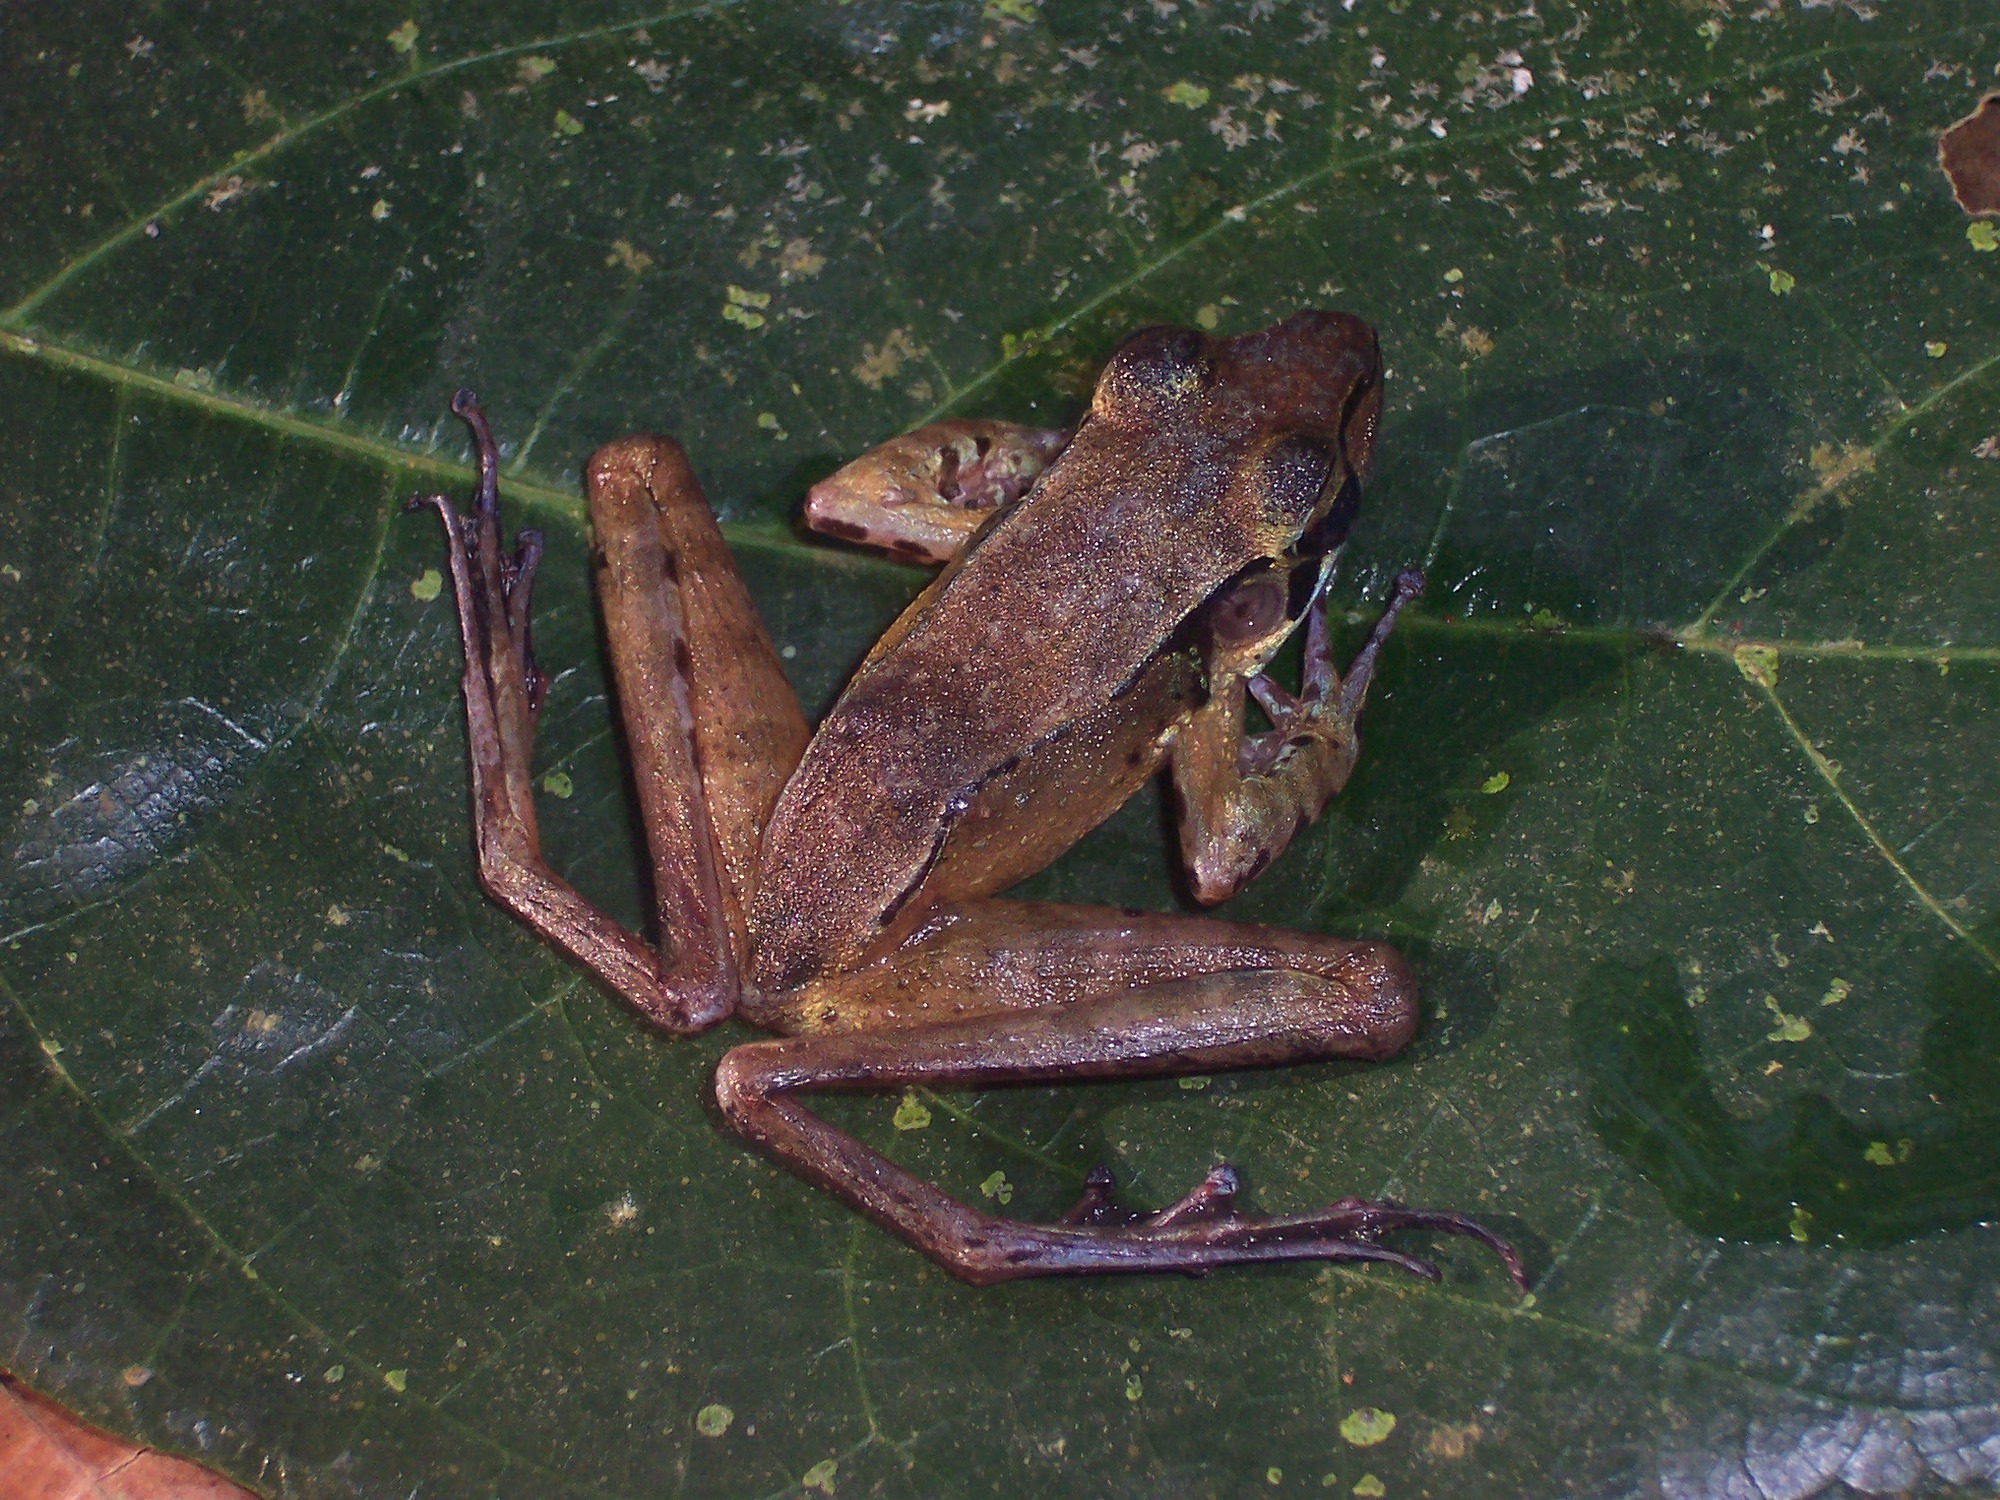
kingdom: Animalia
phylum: Chordata
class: Amphibia
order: Anura
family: Ranidae
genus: Huia
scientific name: Huia masonii
